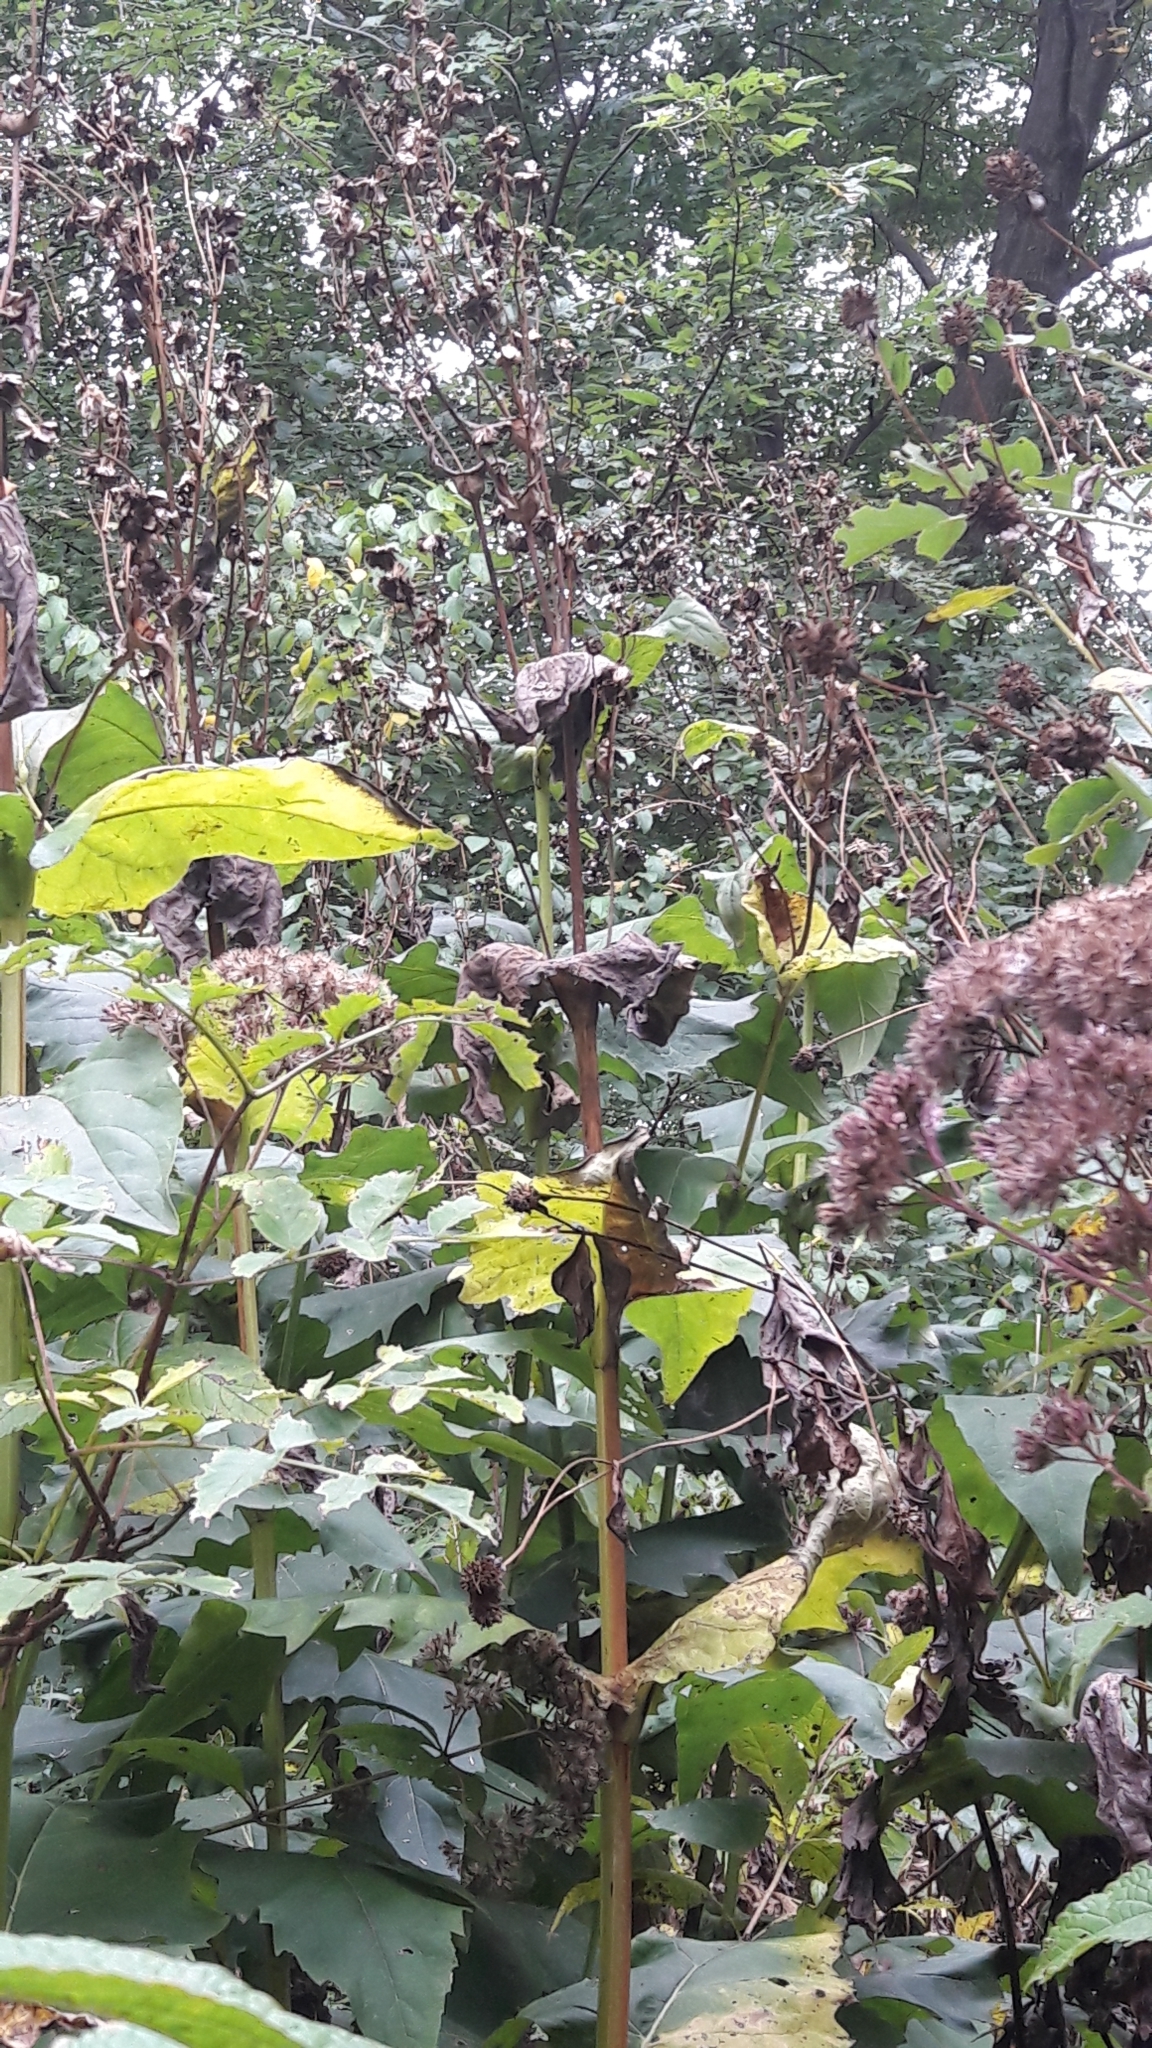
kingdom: Plantae
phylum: Tracheophyta
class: Magnoliopsida
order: Asterales
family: Asteraceae
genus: Silphium
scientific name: Silphium perfoliatum
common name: Cup-plant
